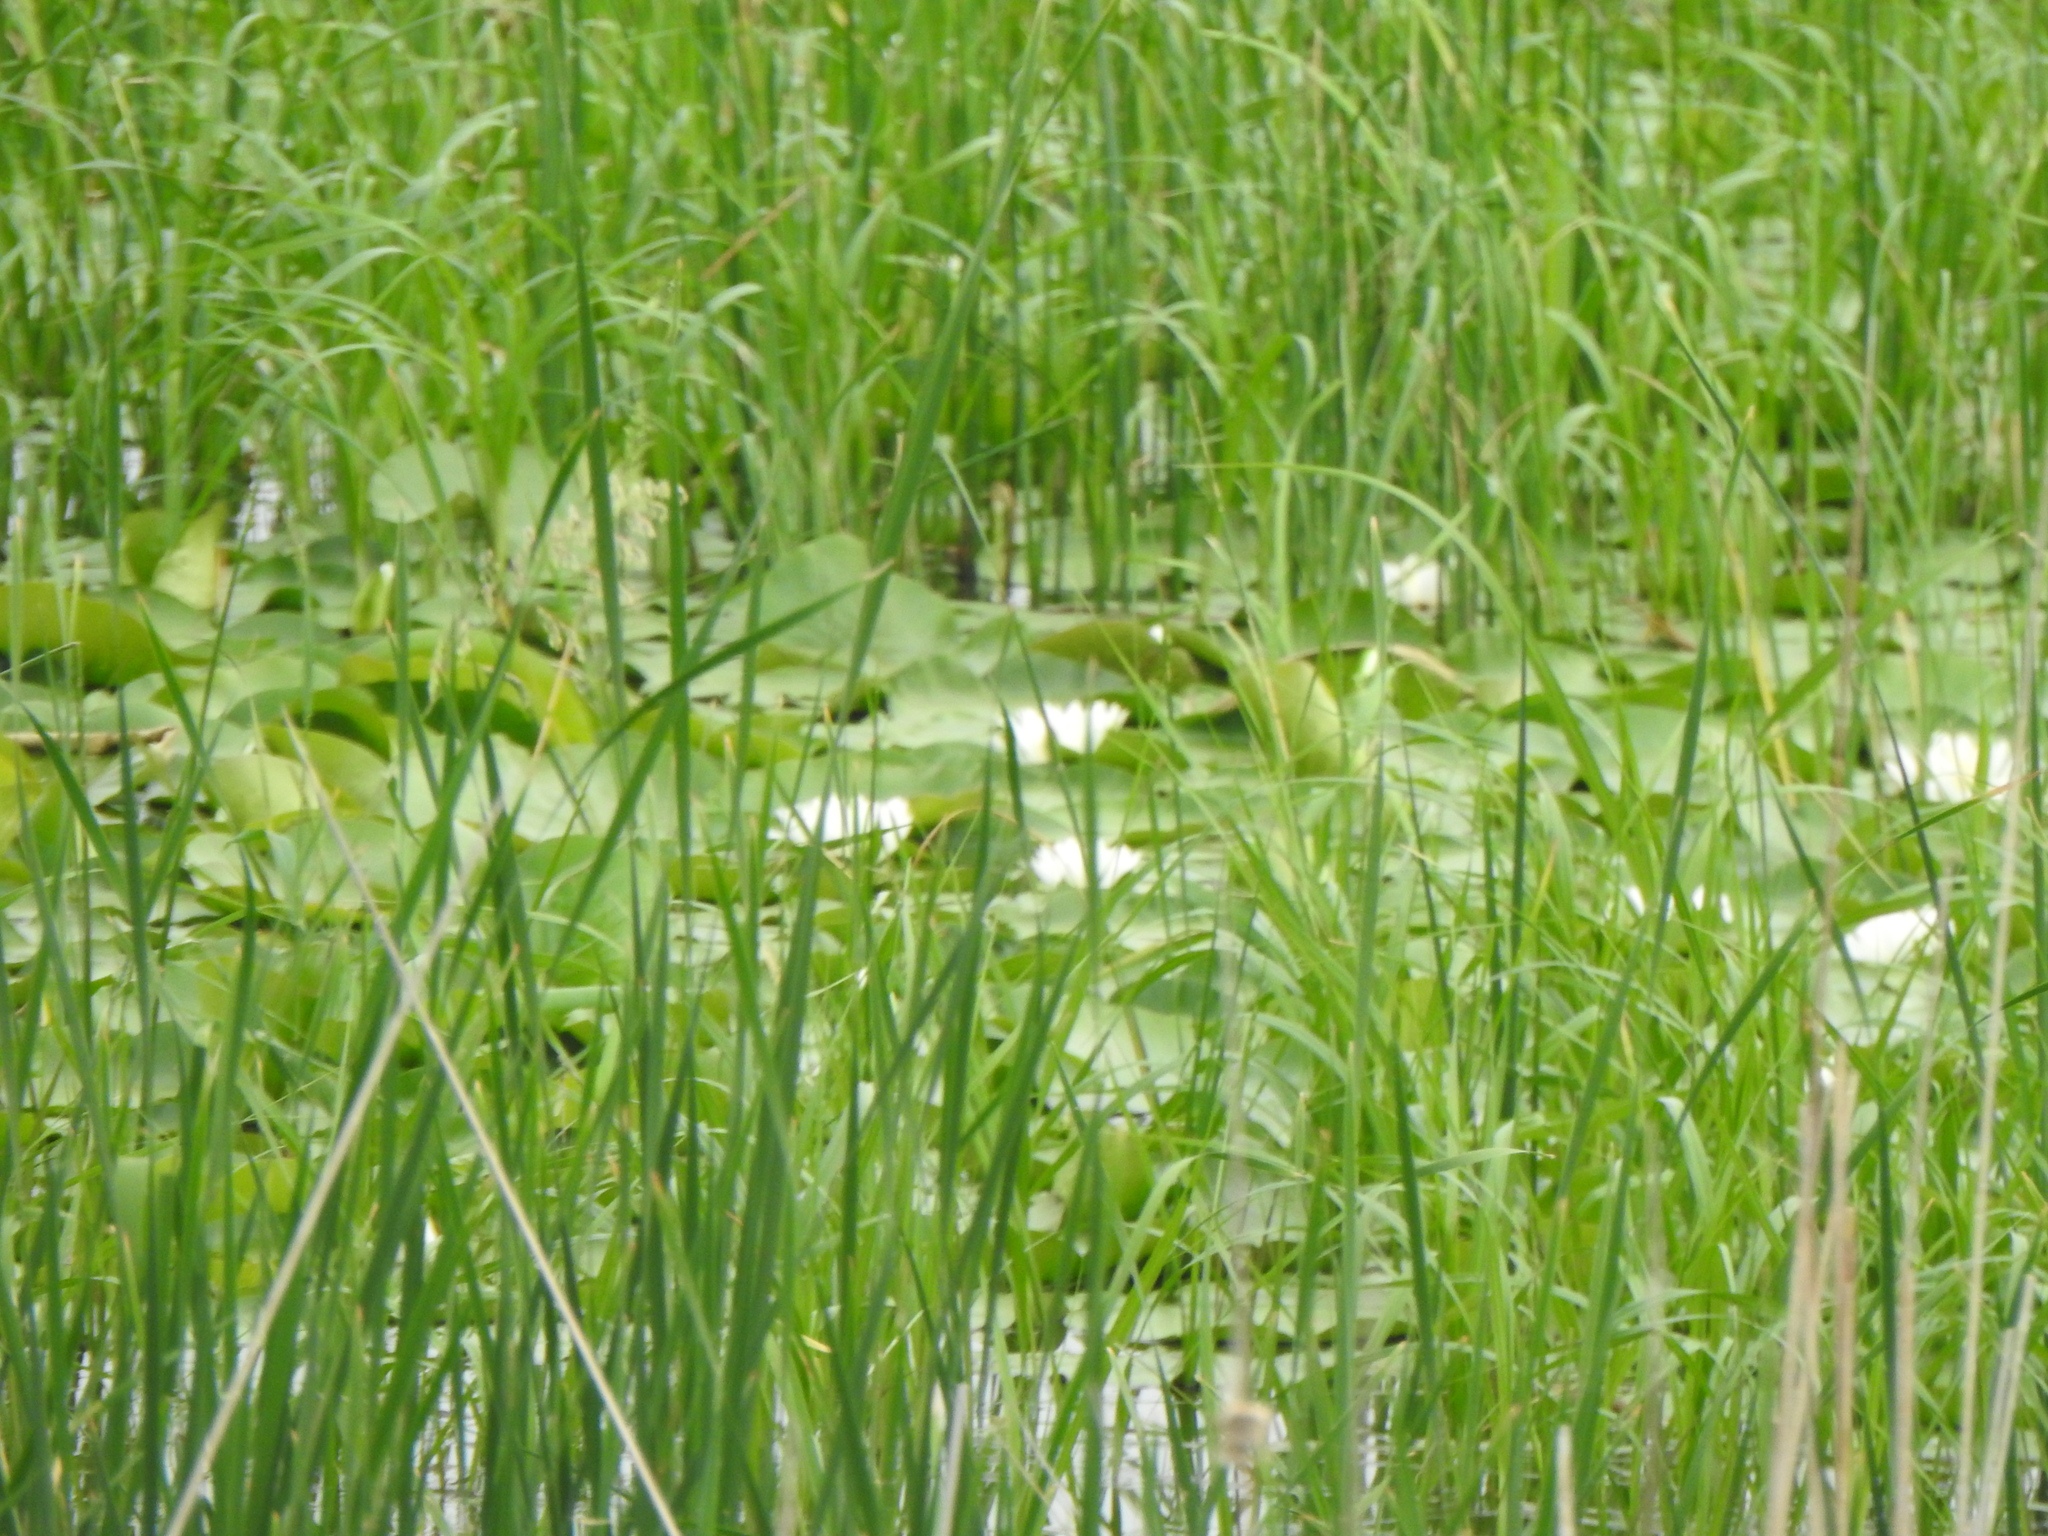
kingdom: Plantae
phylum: Tracheophyta
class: Magnoliopsida
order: Nymphaeales
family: Nymphaeaceae
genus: Nymphaea
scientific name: Nymphaea odorata
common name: Fragrant water-lily
